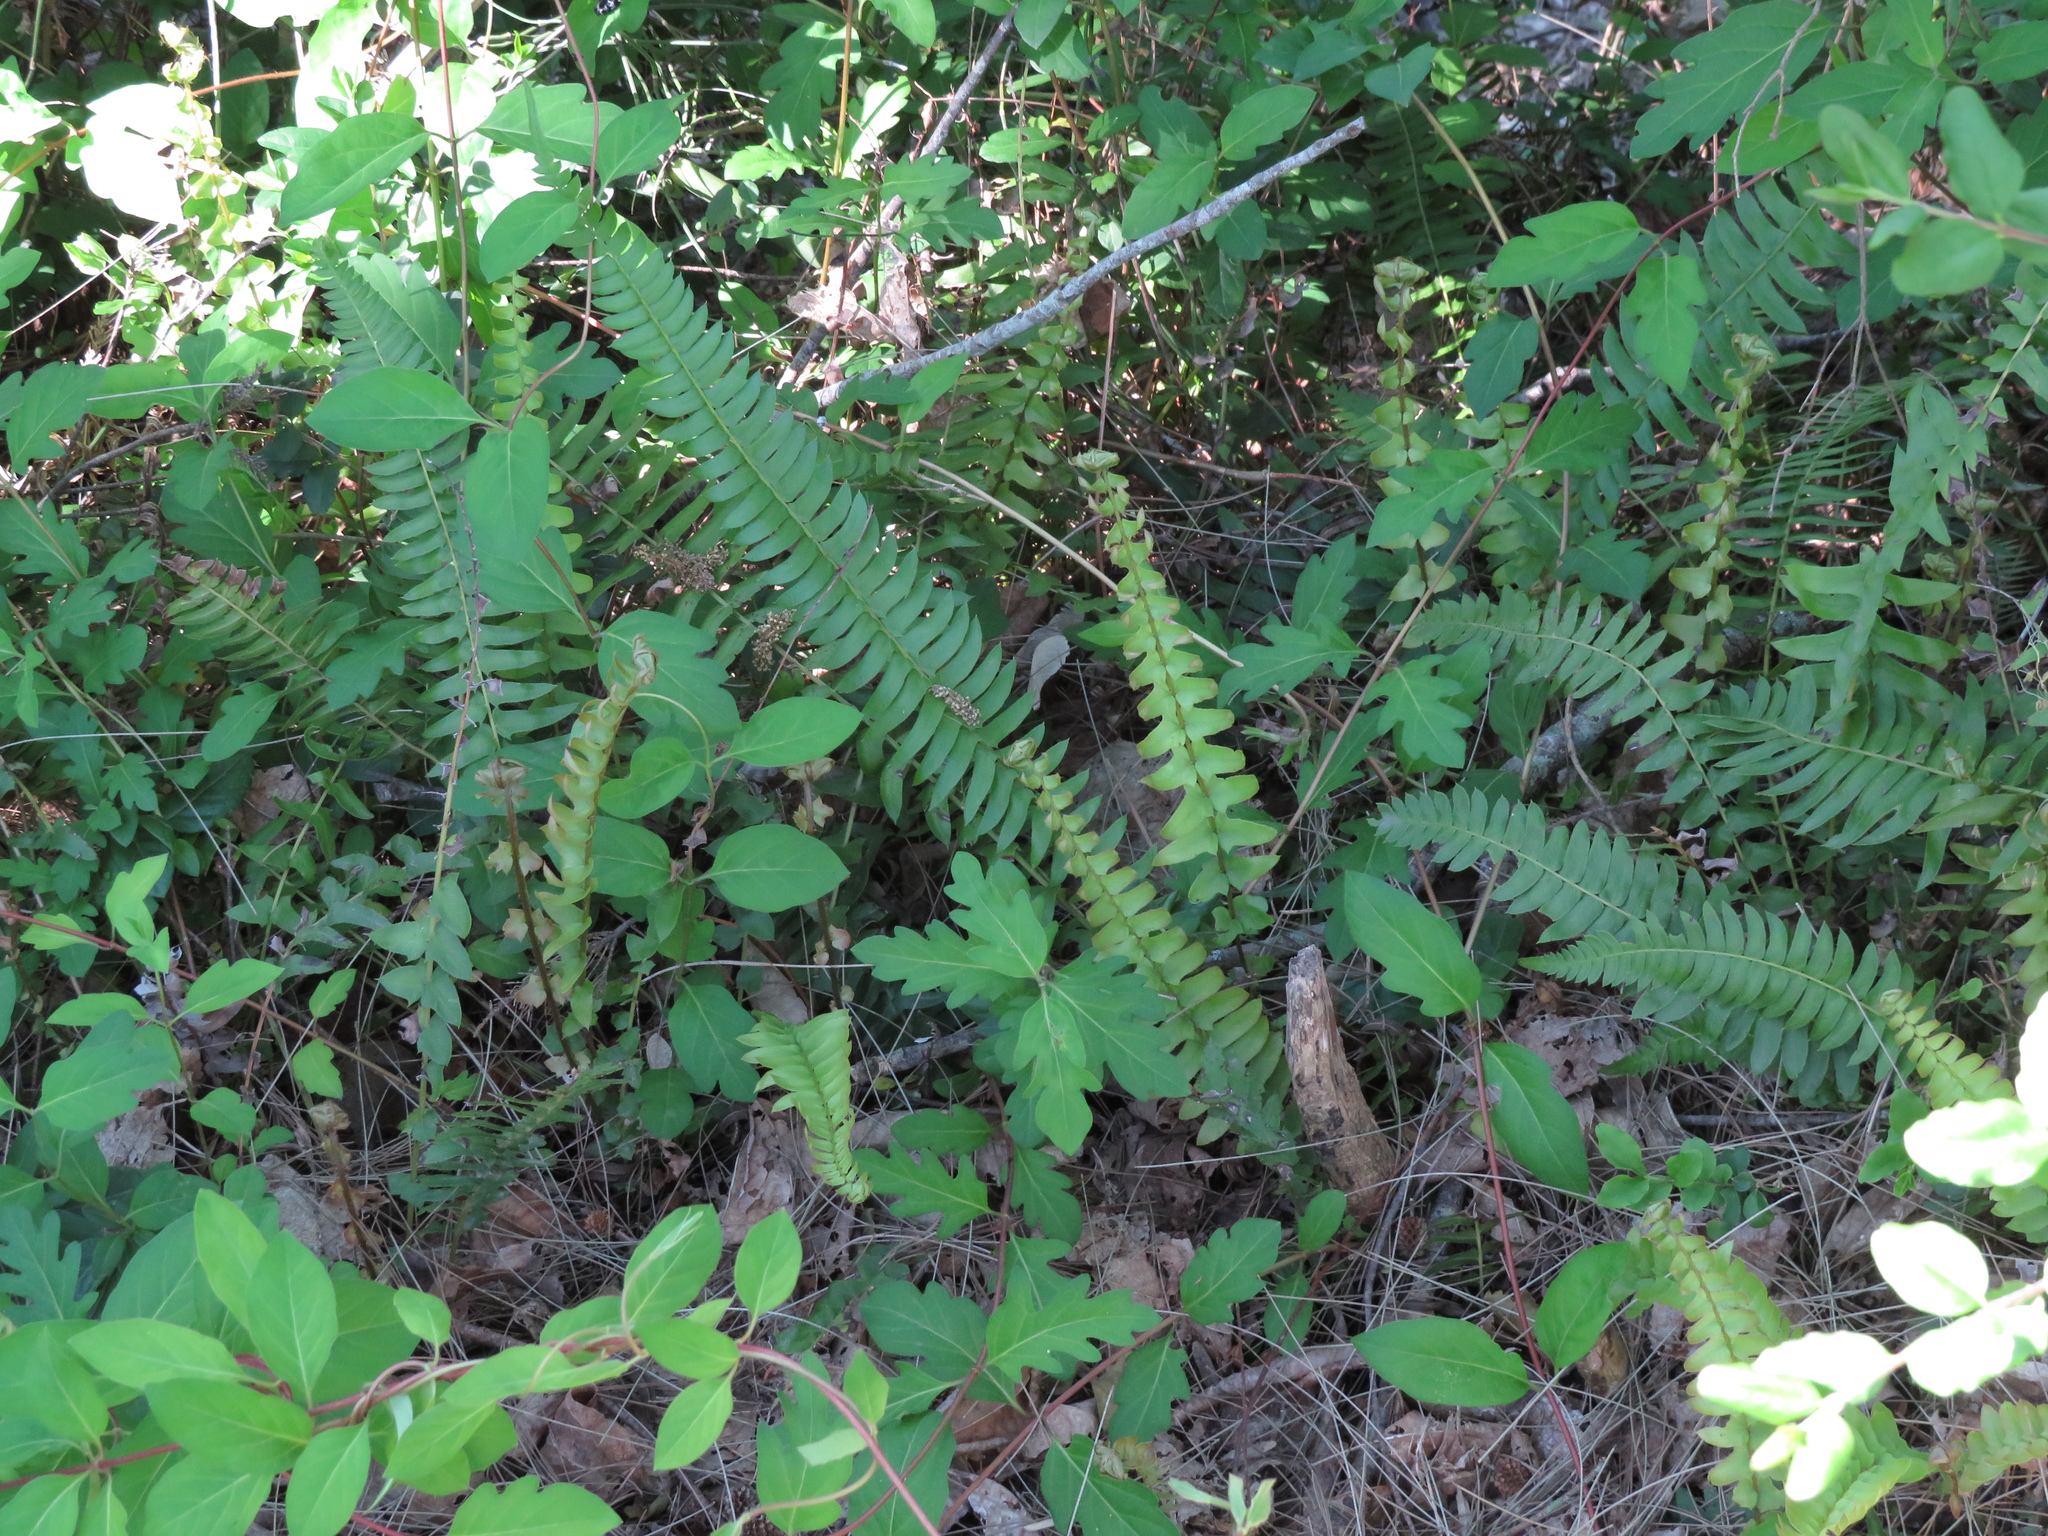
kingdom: Plantae
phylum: Tracheophyta
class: Polypodiopsida
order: Polypodiales
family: Nephrolepidaceae
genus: Nephrolepis
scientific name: Nephrolepis cordifolia
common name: Narrow swordfern
